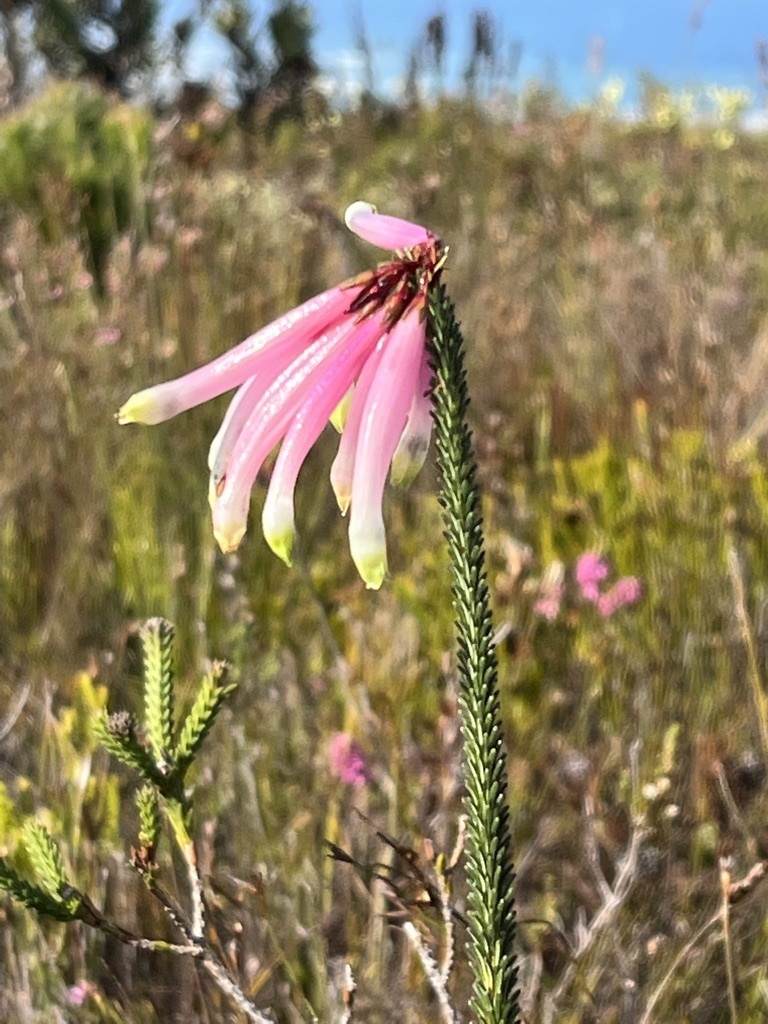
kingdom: Plantae
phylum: Tracheophyta
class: Magnoliopsida
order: Ericales
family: Ericaceae
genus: Erica
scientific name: Erica fascicularis
